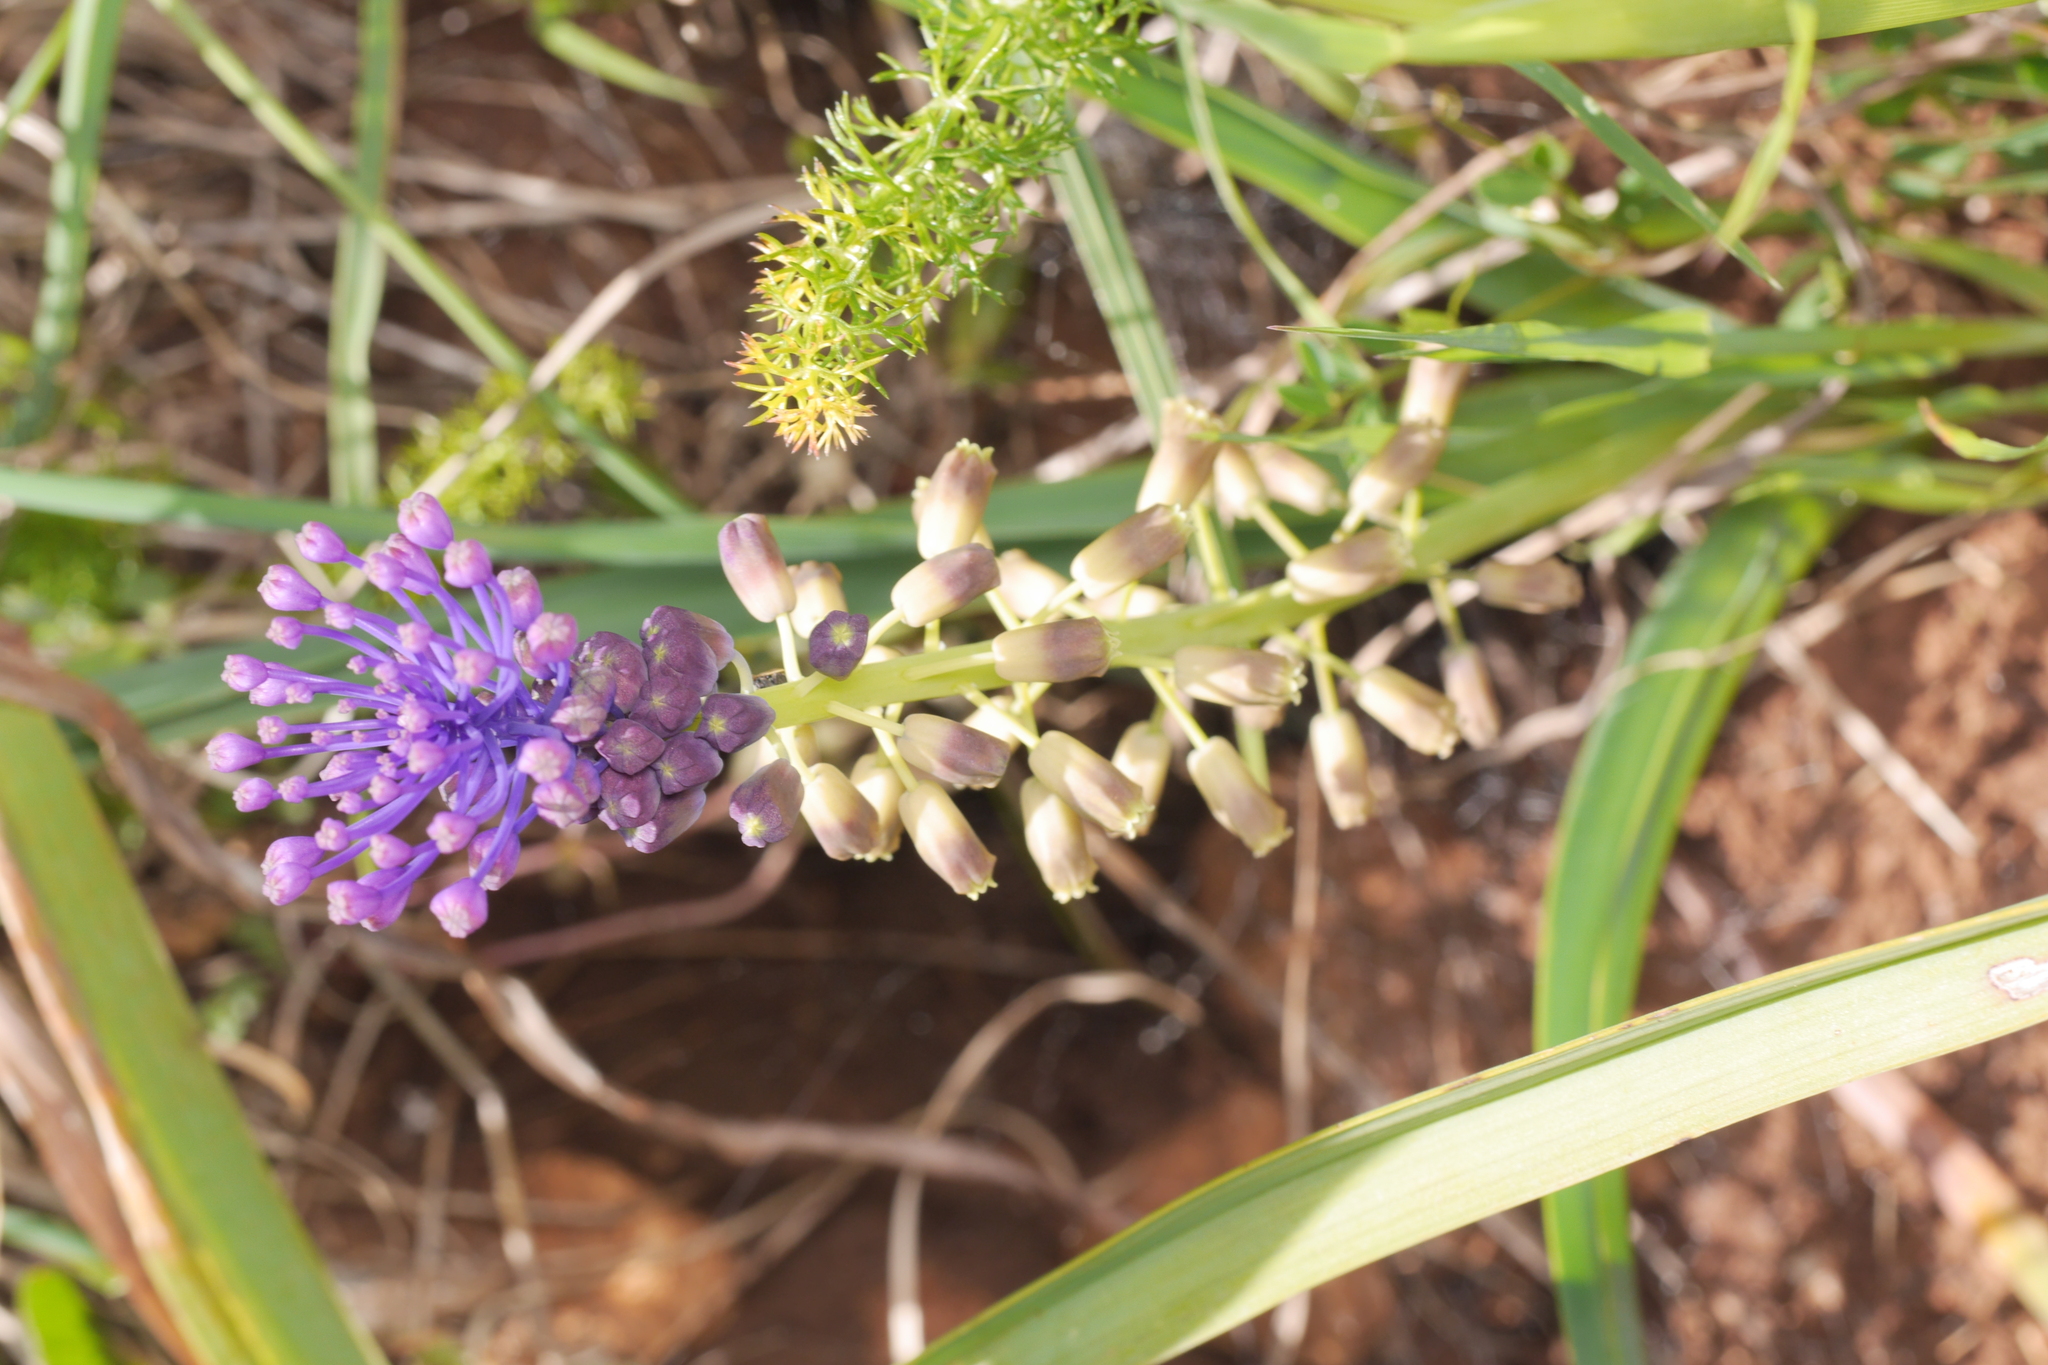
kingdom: Plantae
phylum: Tracheophyta
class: Liliopsida
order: Asparagales
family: Asparagaceae
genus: Muscari
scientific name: Muscari comosum
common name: Tassel hyacinth
